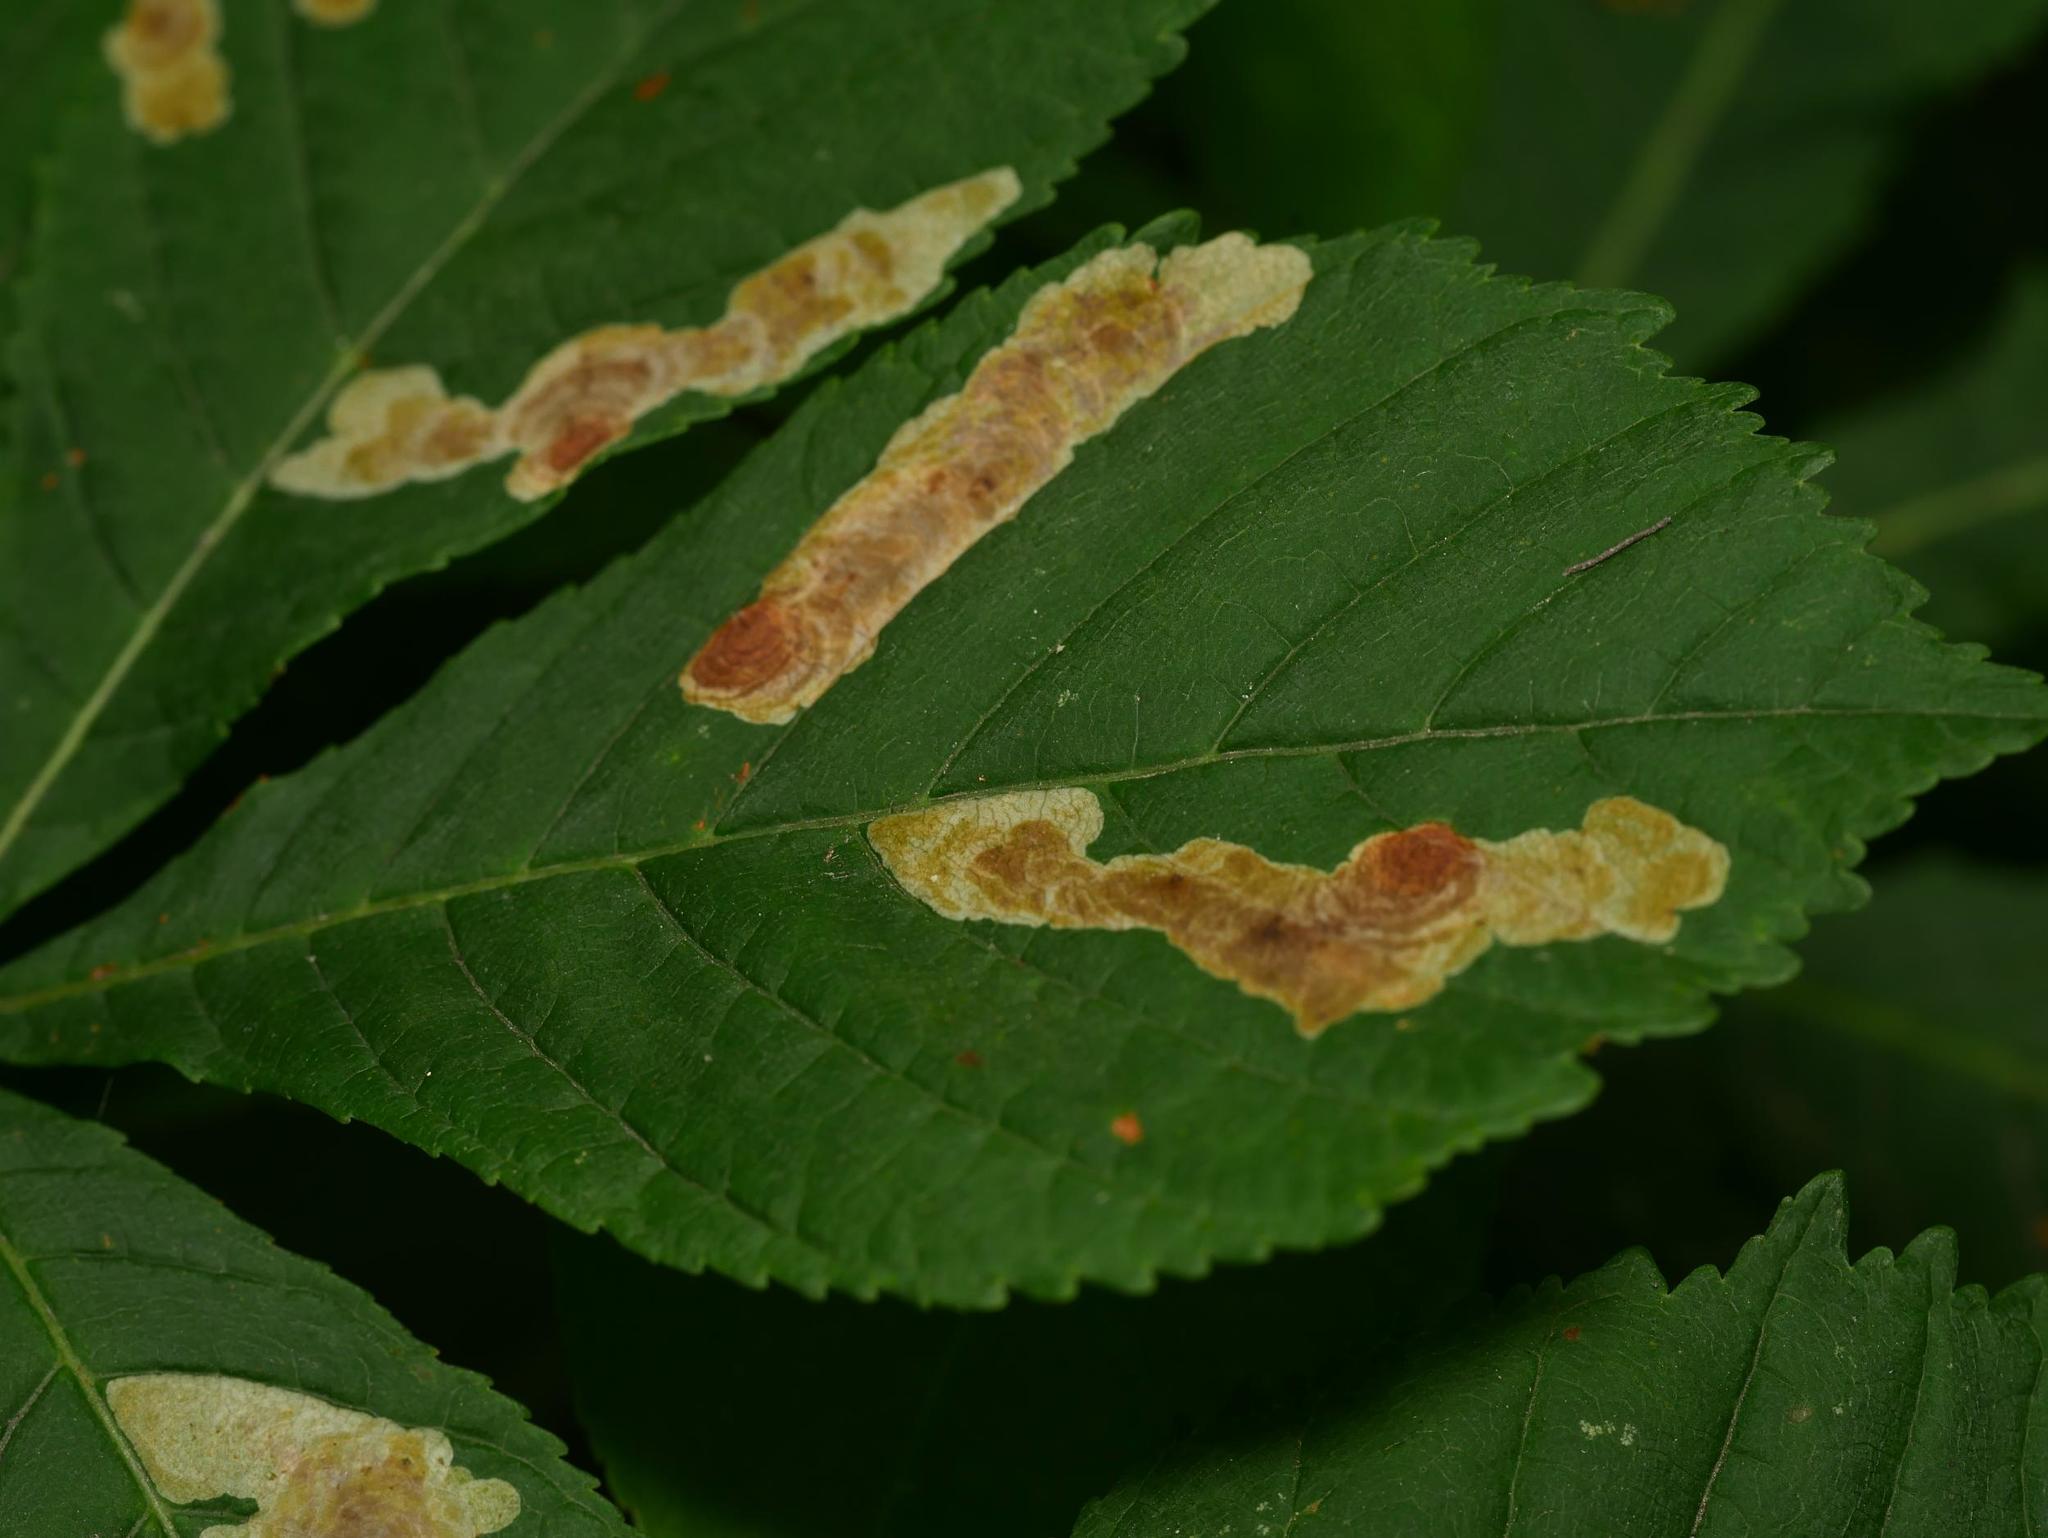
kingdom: Animalia
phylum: Arthropoda
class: Insecta
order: Lepidoptera
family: Gracillariidae
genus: Cameraria
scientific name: Cameraria ohridella
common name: Horse-chestnut leaf-miner
